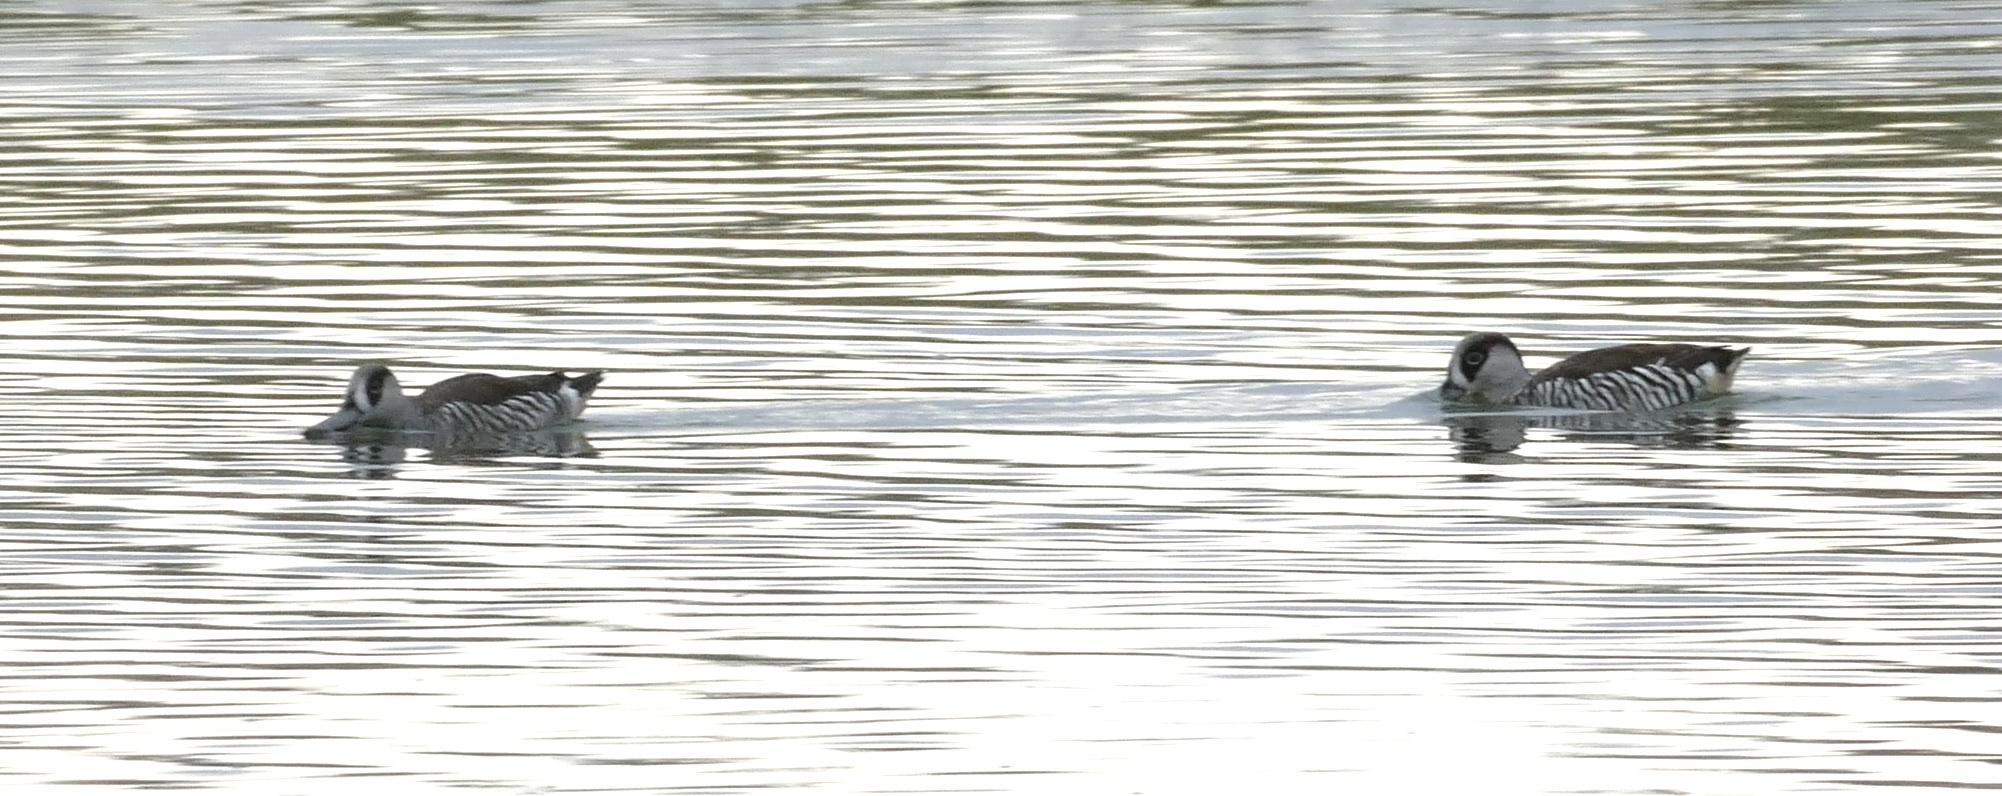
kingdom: Animalia
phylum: Chordata
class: Aves
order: Anseriformes
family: Anatidae
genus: Malacorhynchus
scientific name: Malacorhynchus membranaceus
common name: Pink-eared duck
